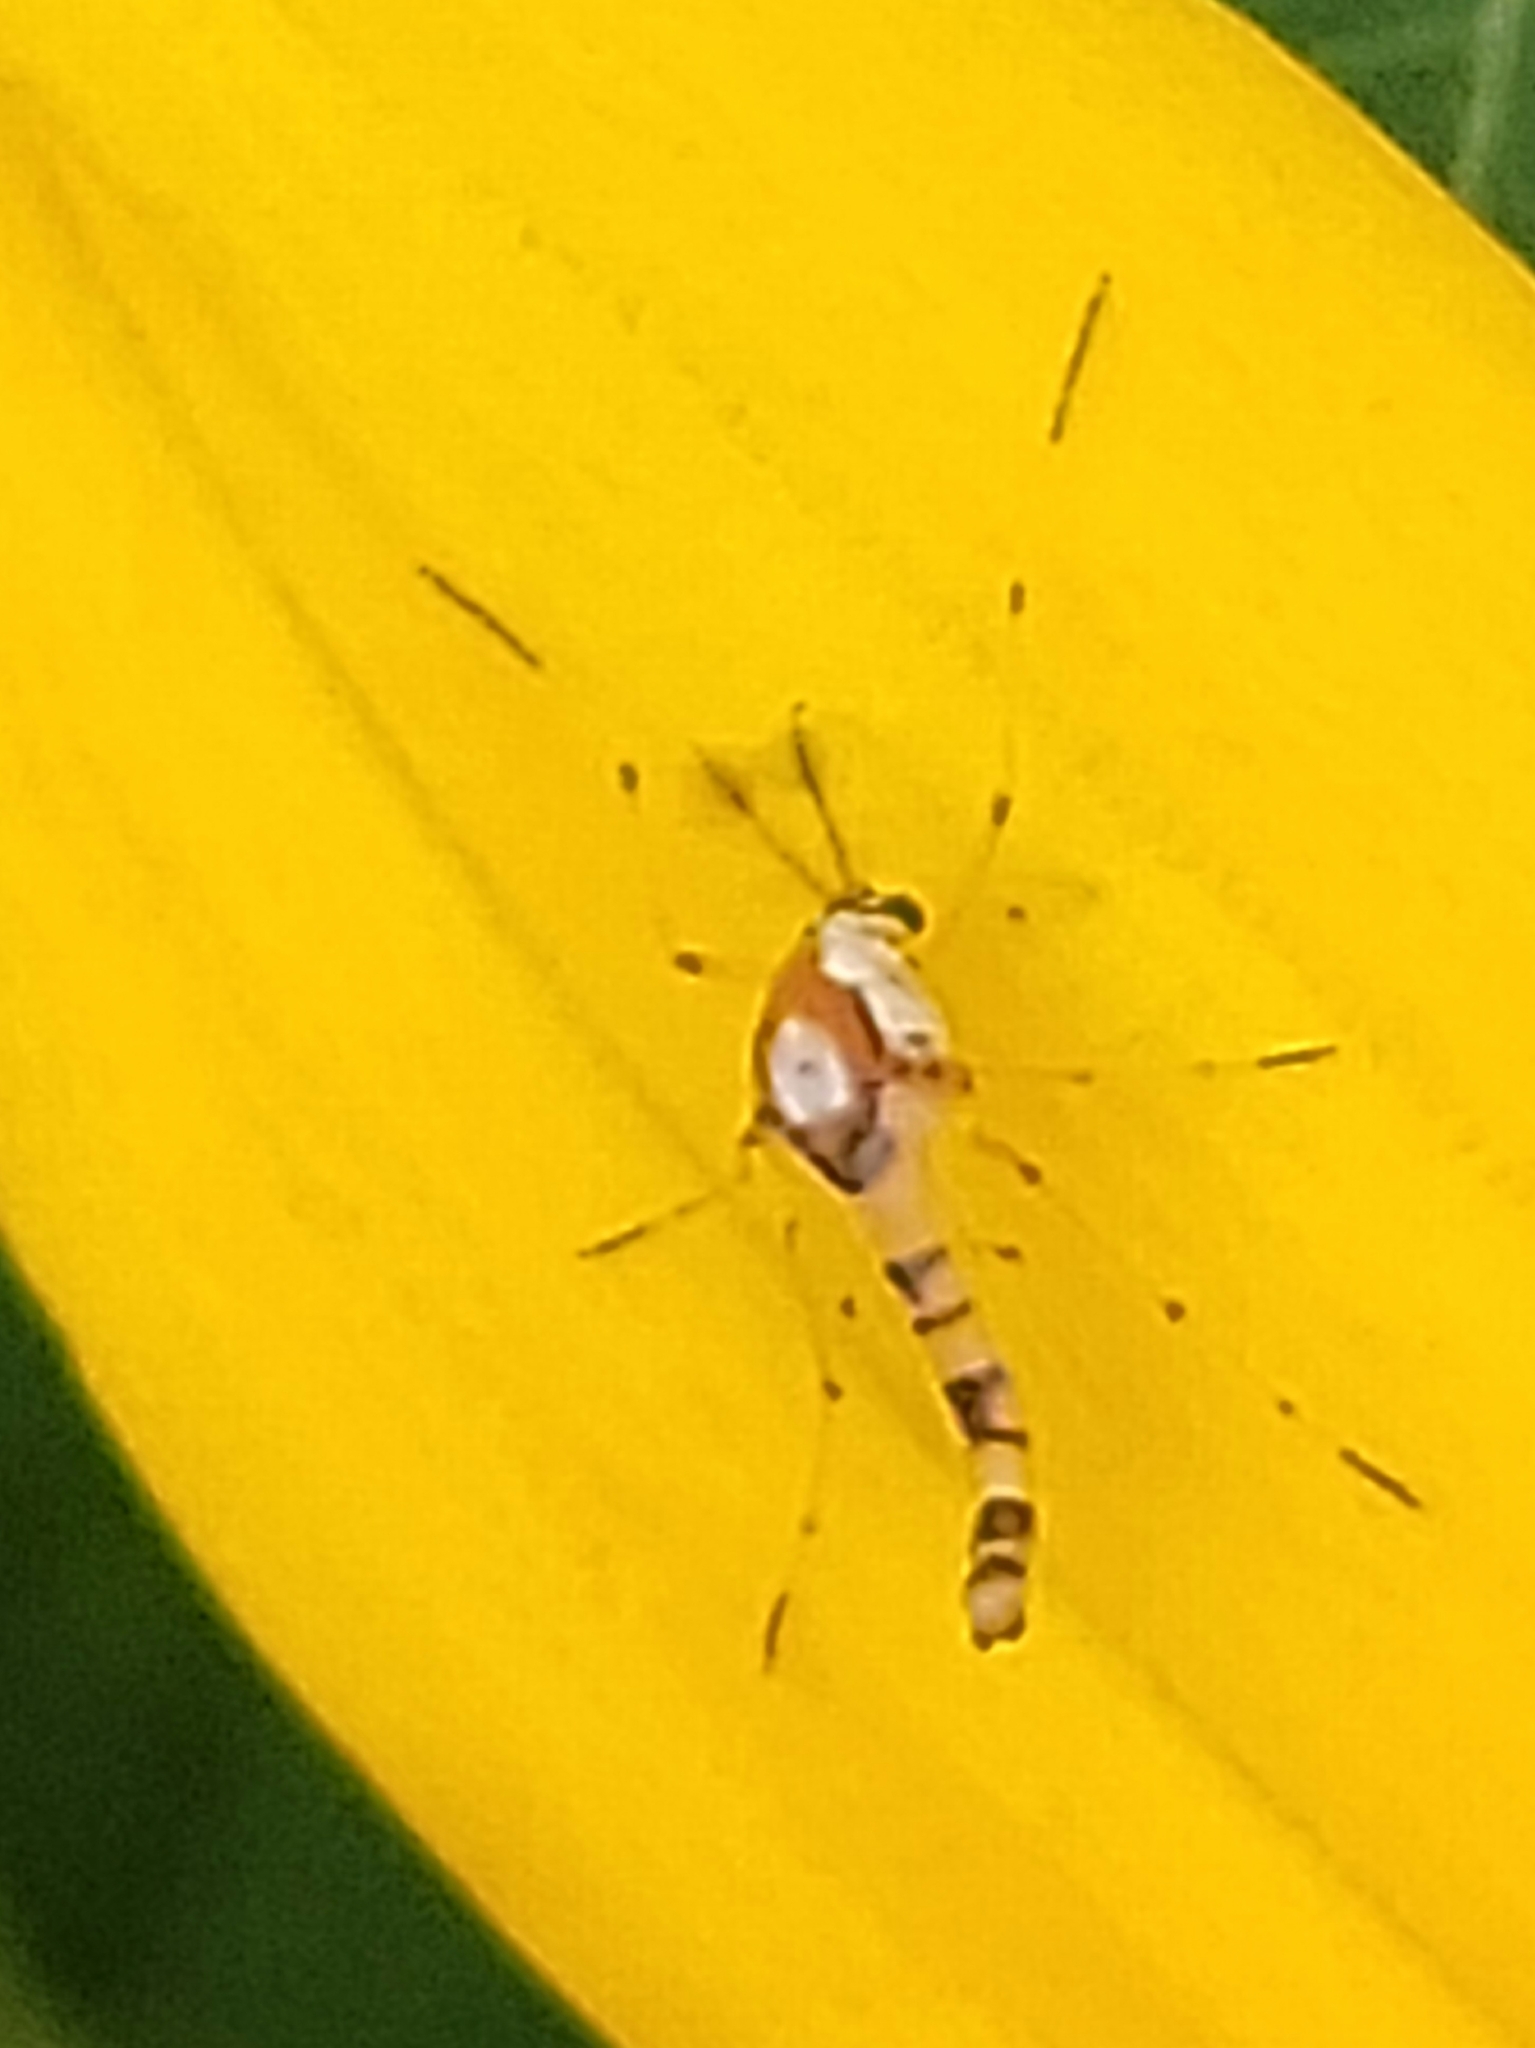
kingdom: Animalia
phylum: Arthropoda
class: Insecta
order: Diptera
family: Chironomidae
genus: Coelotanypus
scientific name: Coelotanypus tricolor
